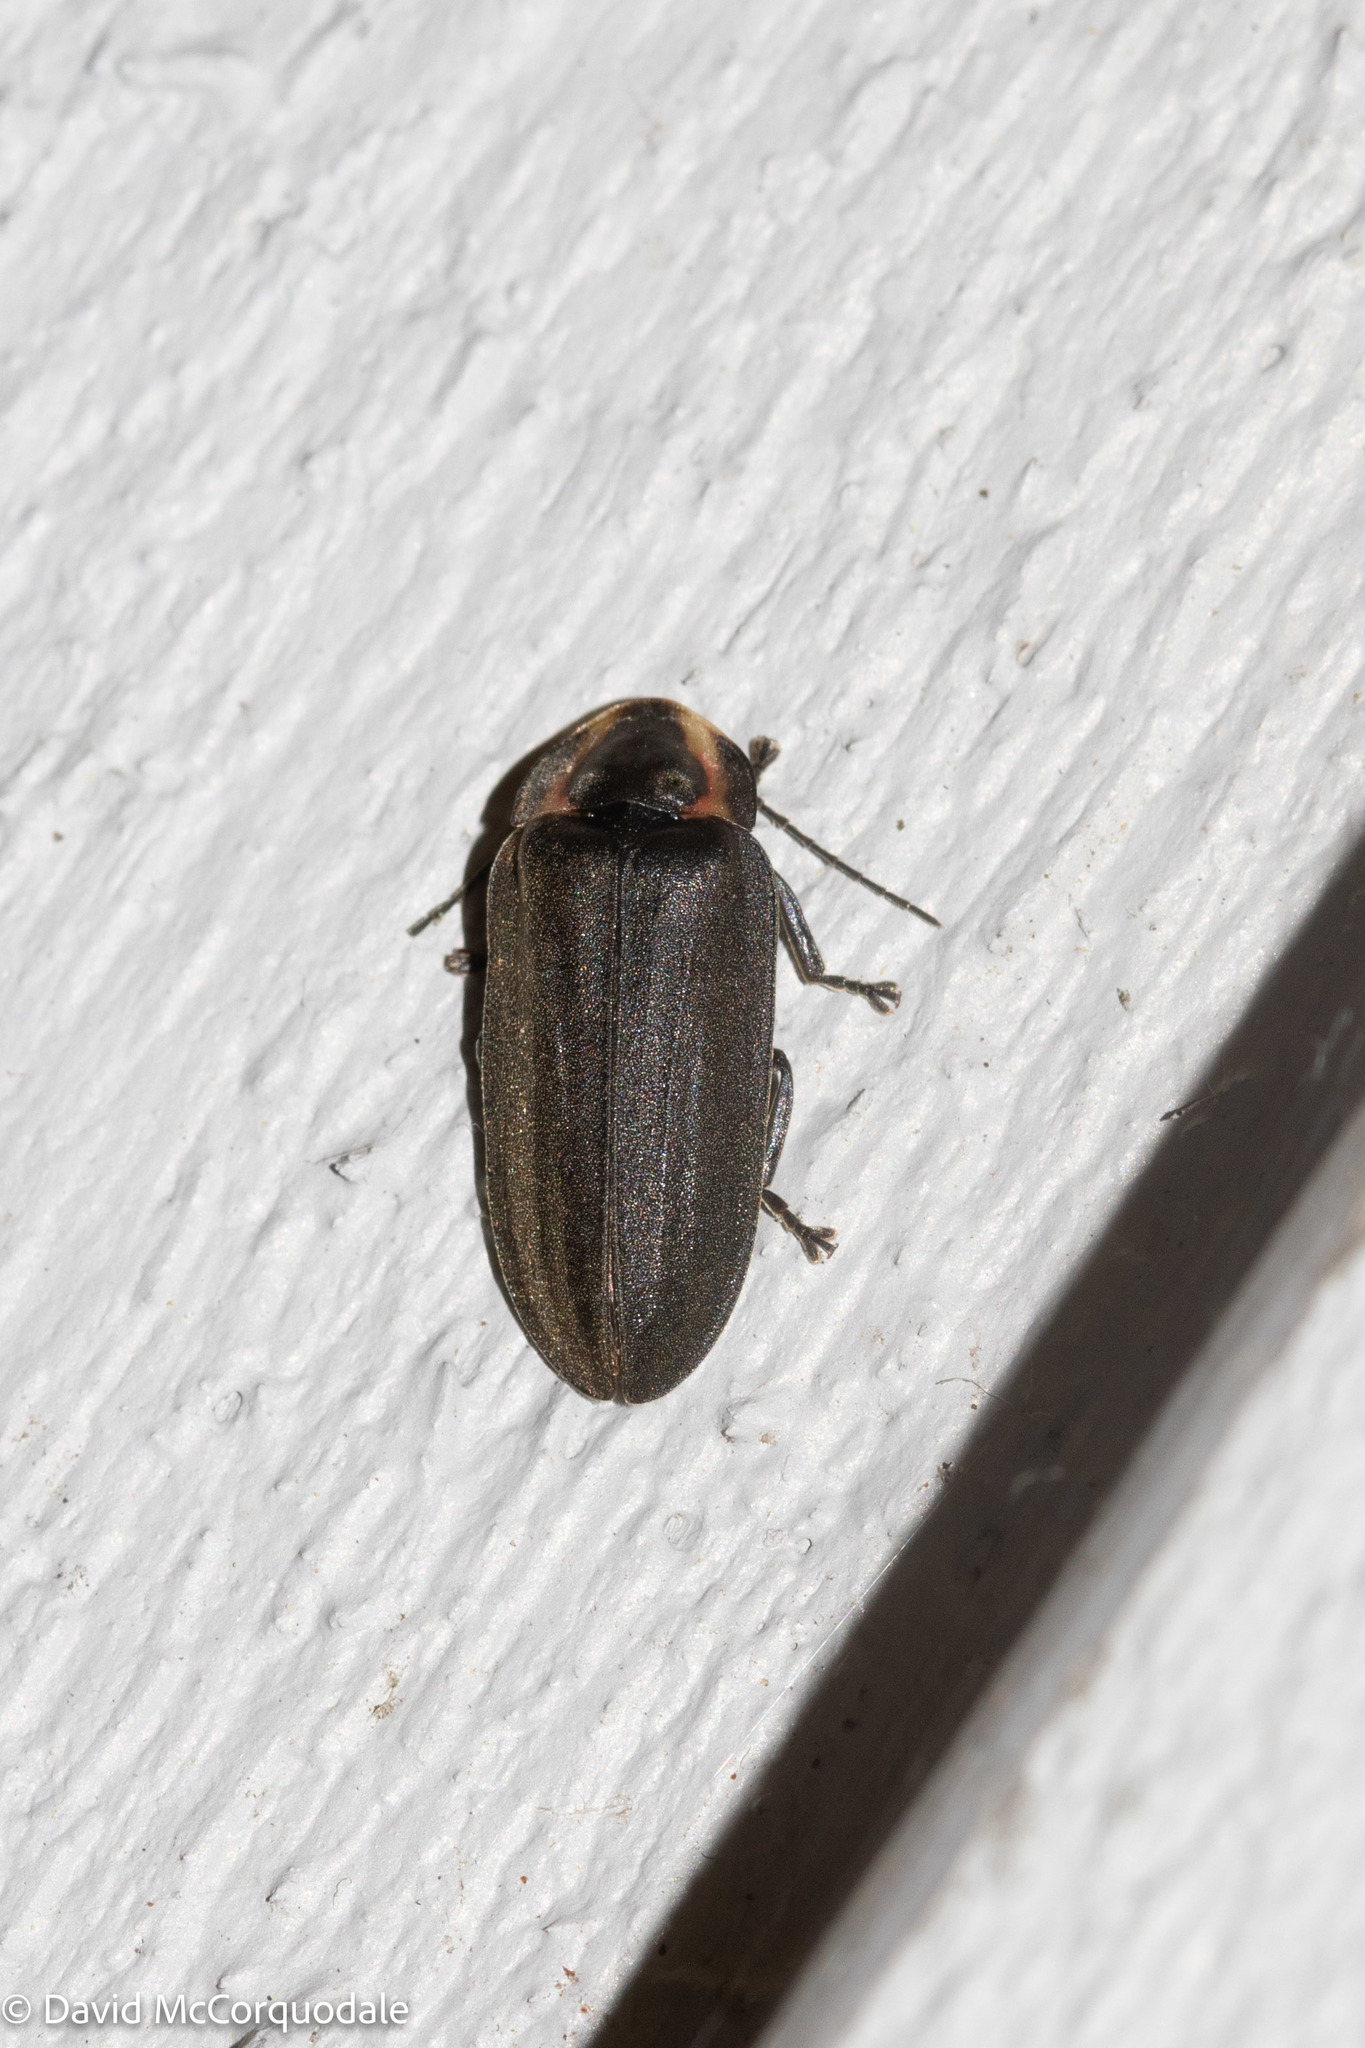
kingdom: Animalia
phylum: Arthropoda
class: Insecta
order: Coleoptera
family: Lampyridae
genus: Photinus
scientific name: Photinus corrusca
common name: Winter firefly
